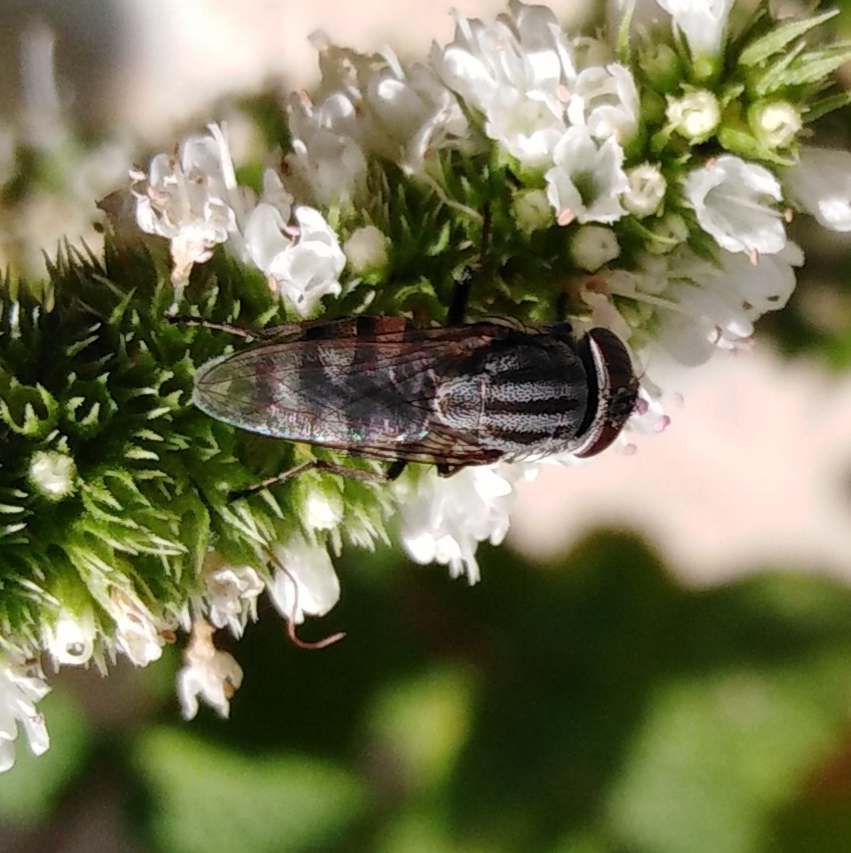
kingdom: Animalia
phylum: Arthropoda
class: Insecta
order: Diptera
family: Calliphoridae
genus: Stomorhina
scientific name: Stomorhina lunata
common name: Locust blowfly
